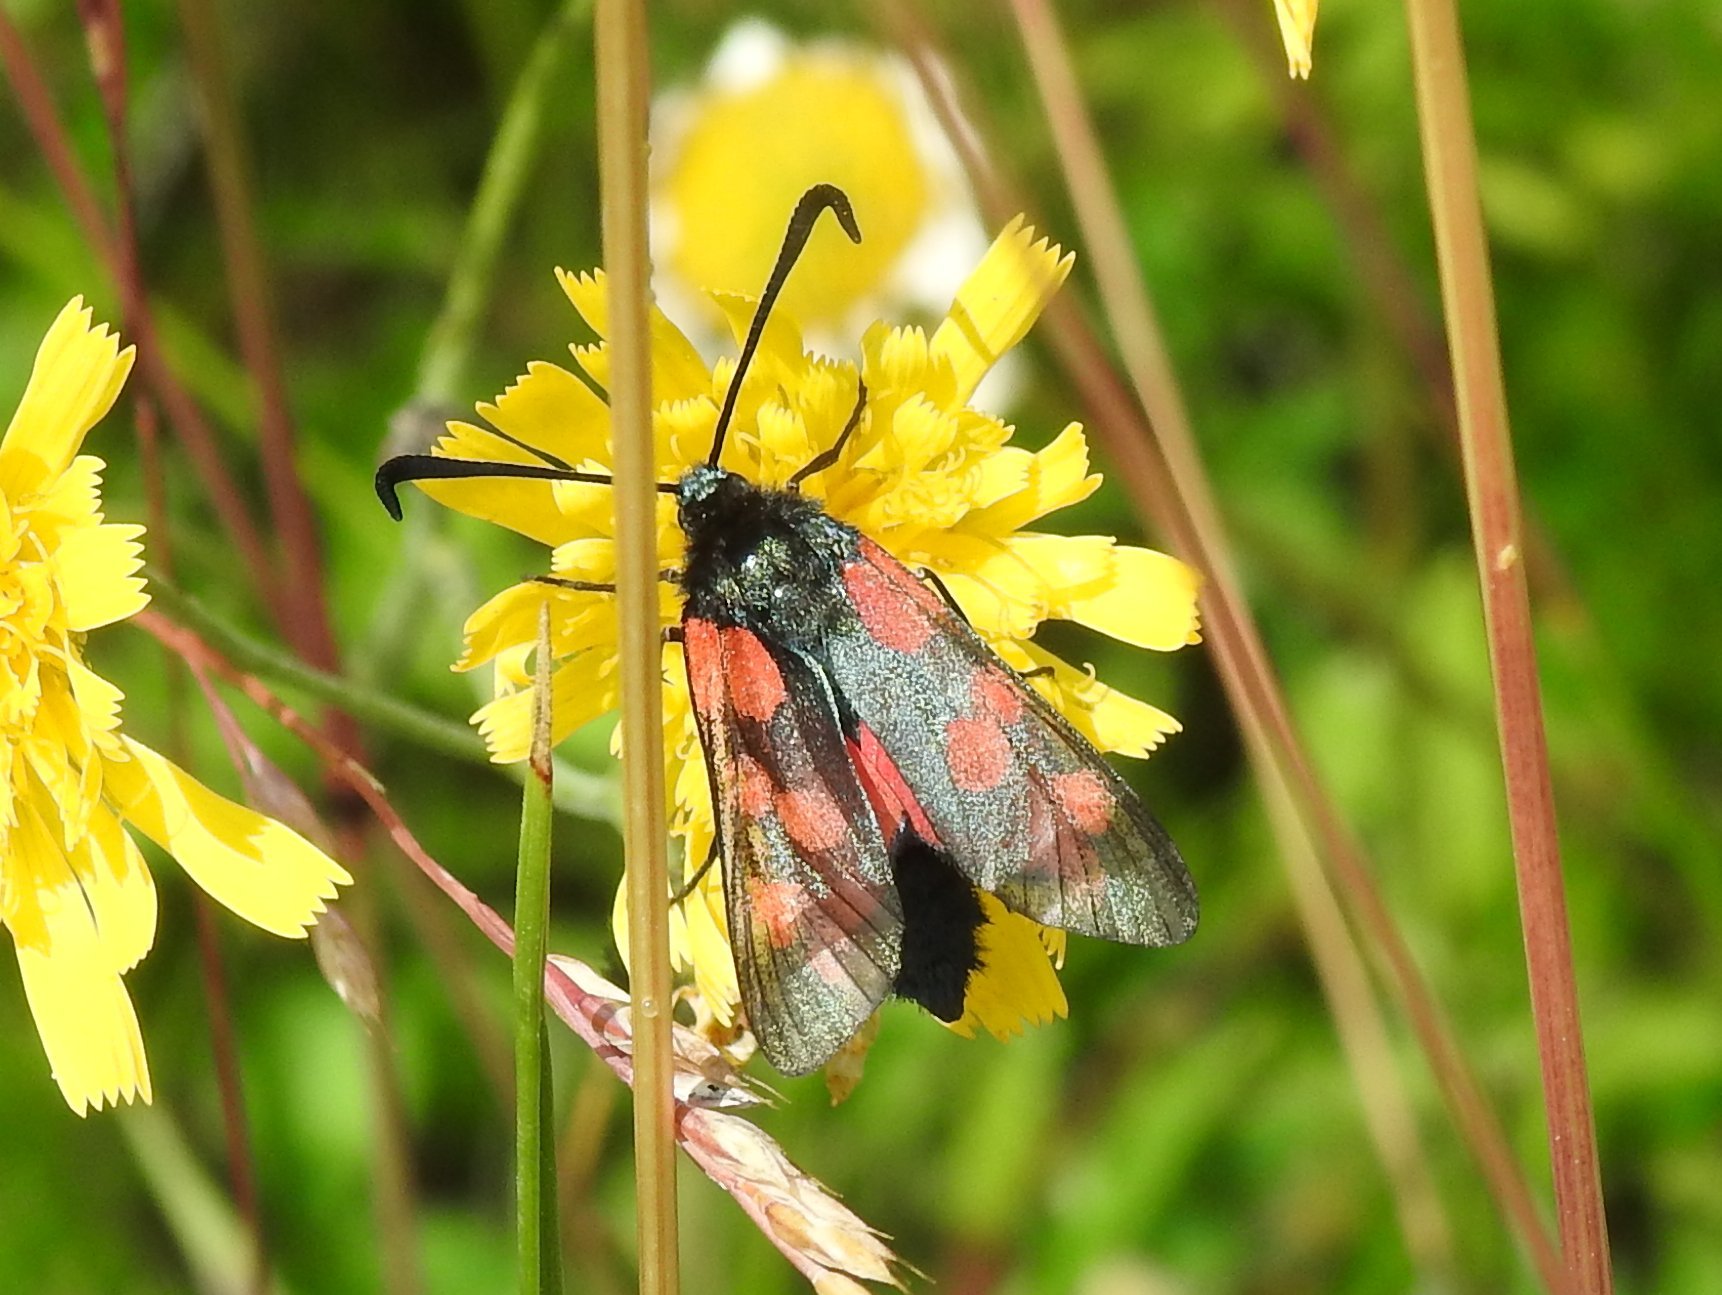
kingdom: Animalia
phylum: Arthropoda
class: Insecta
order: Lepidoptera
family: Zygaenidae
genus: Zygaena
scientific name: Zygaena filipendulae
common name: Six-spot burnet
